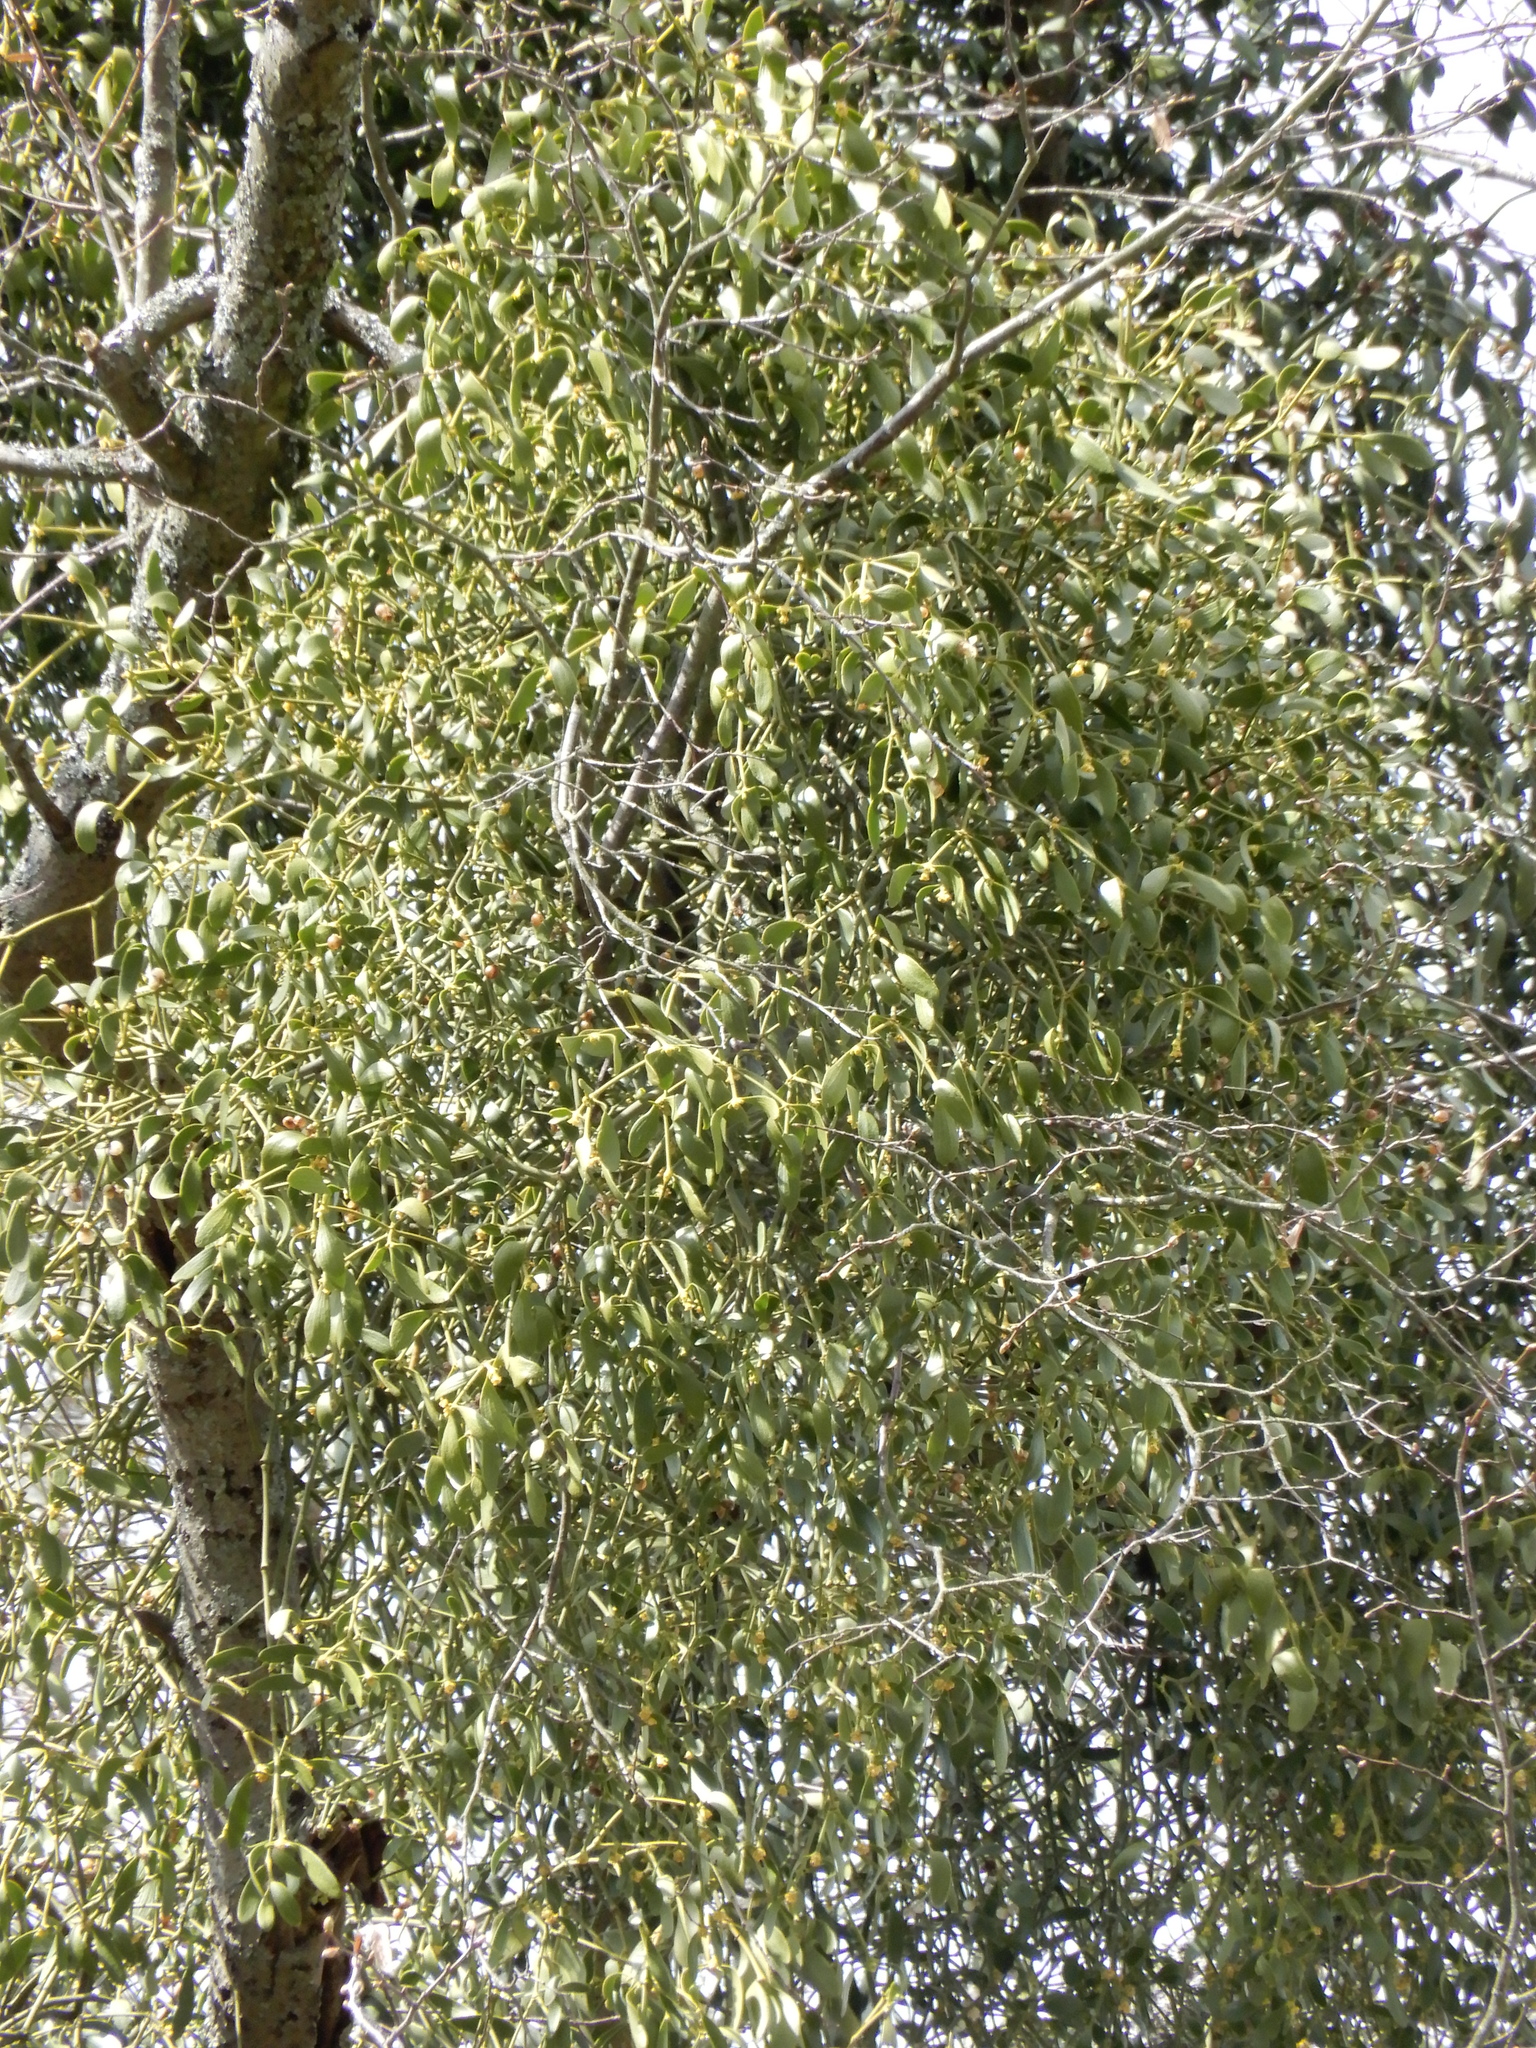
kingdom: Plantae
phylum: Tracheophyta
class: Magnoliopsida
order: Santalales
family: Viscaceae
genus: Viscum
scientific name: Viscum album
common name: Mistletoe
